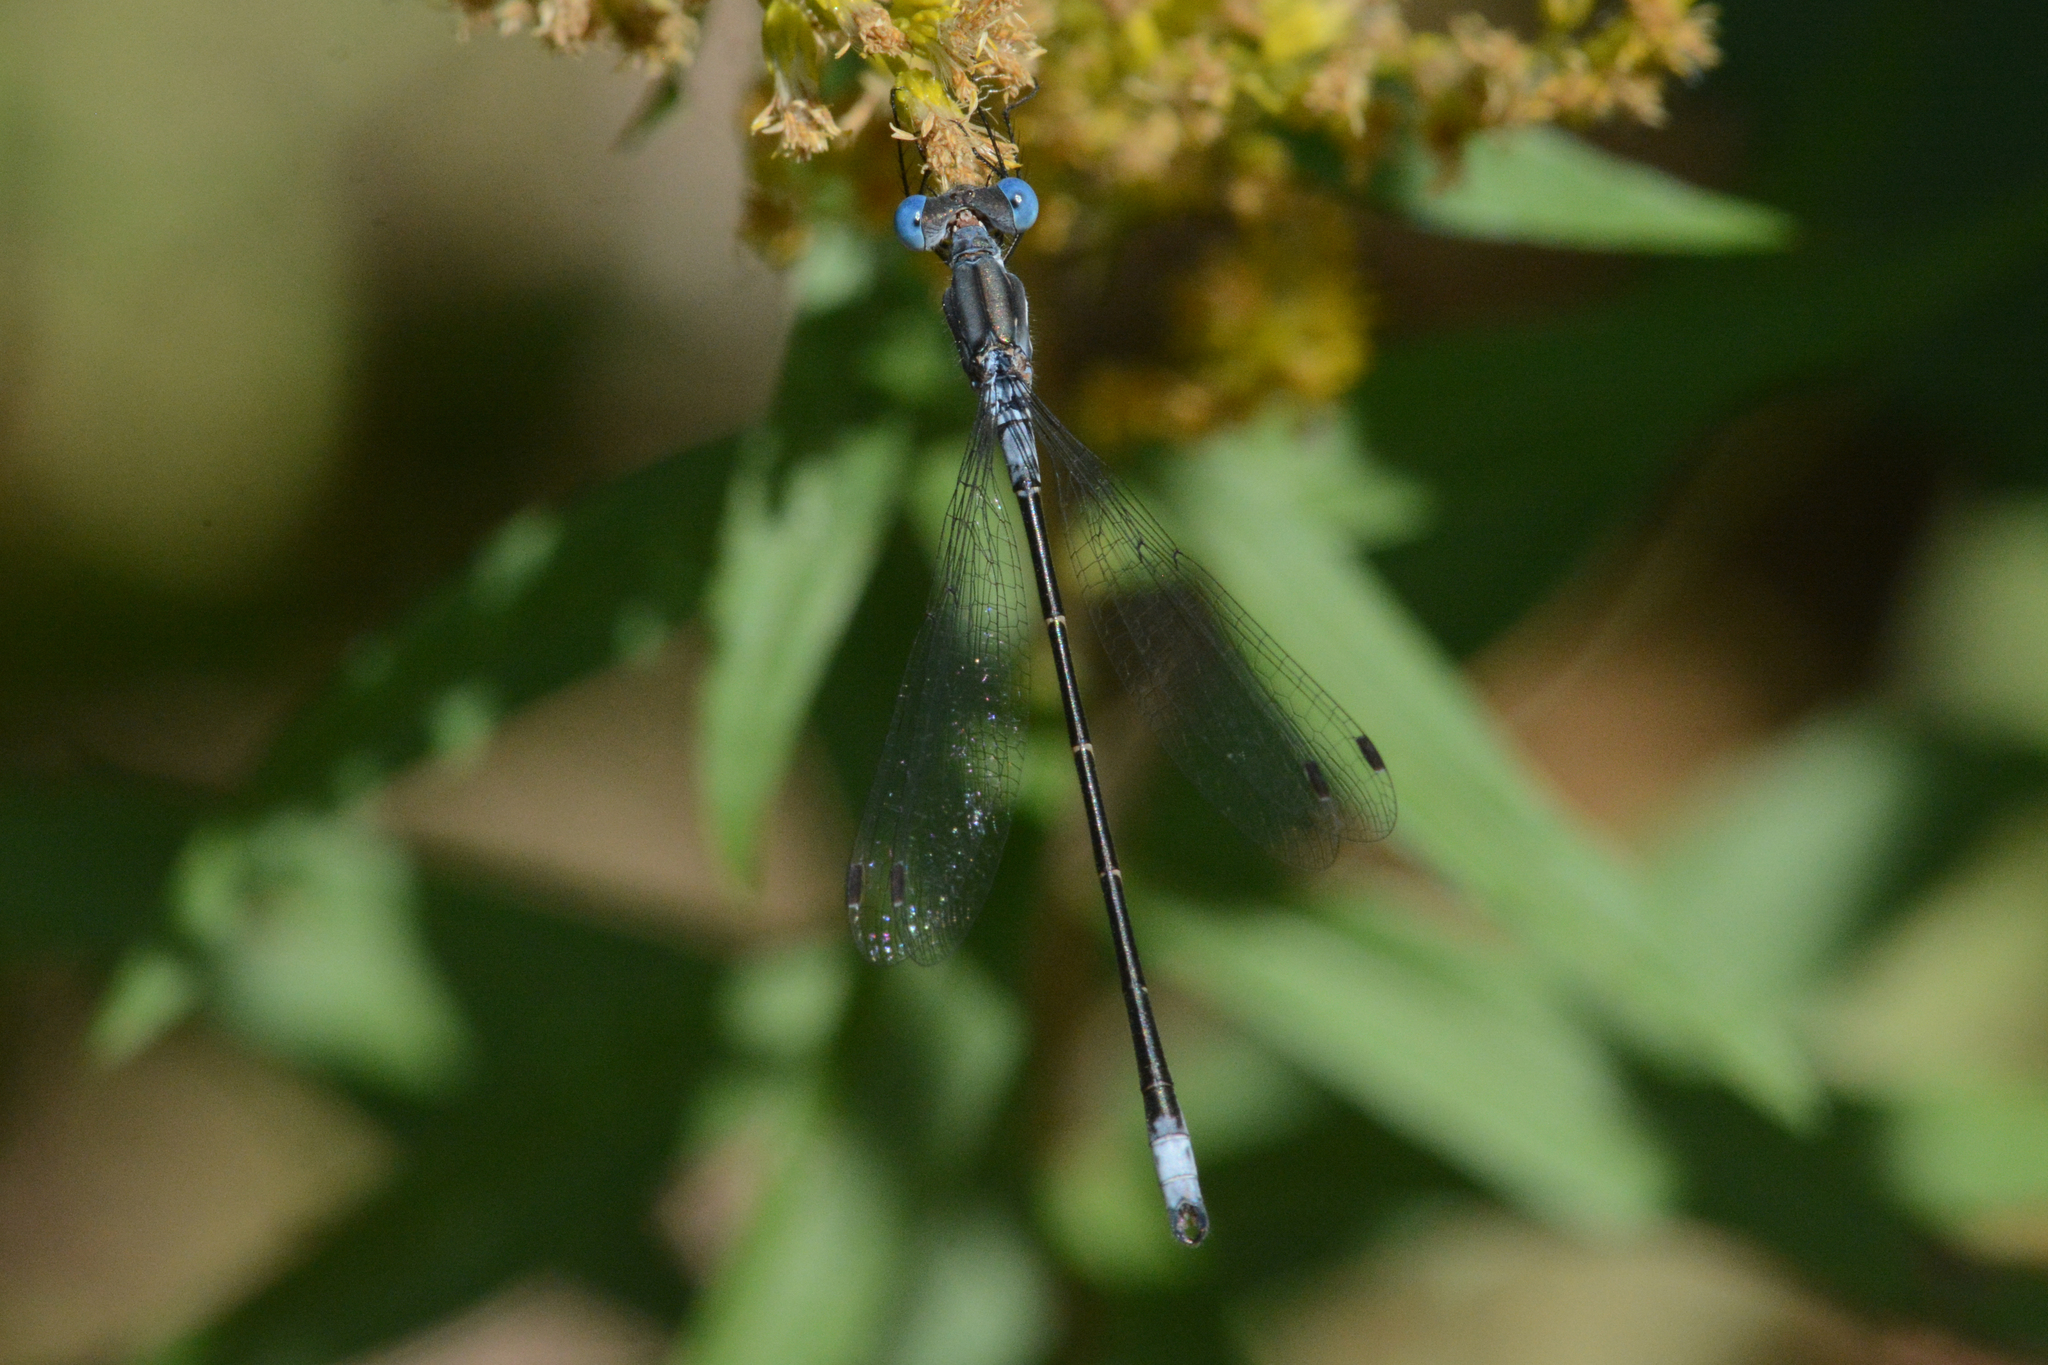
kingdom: Animalia
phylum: Arthropoda
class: Insecta
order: Odonata
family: Lestidae
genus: Lestes
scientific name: Lestes congener
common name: Spotted spreadwing
